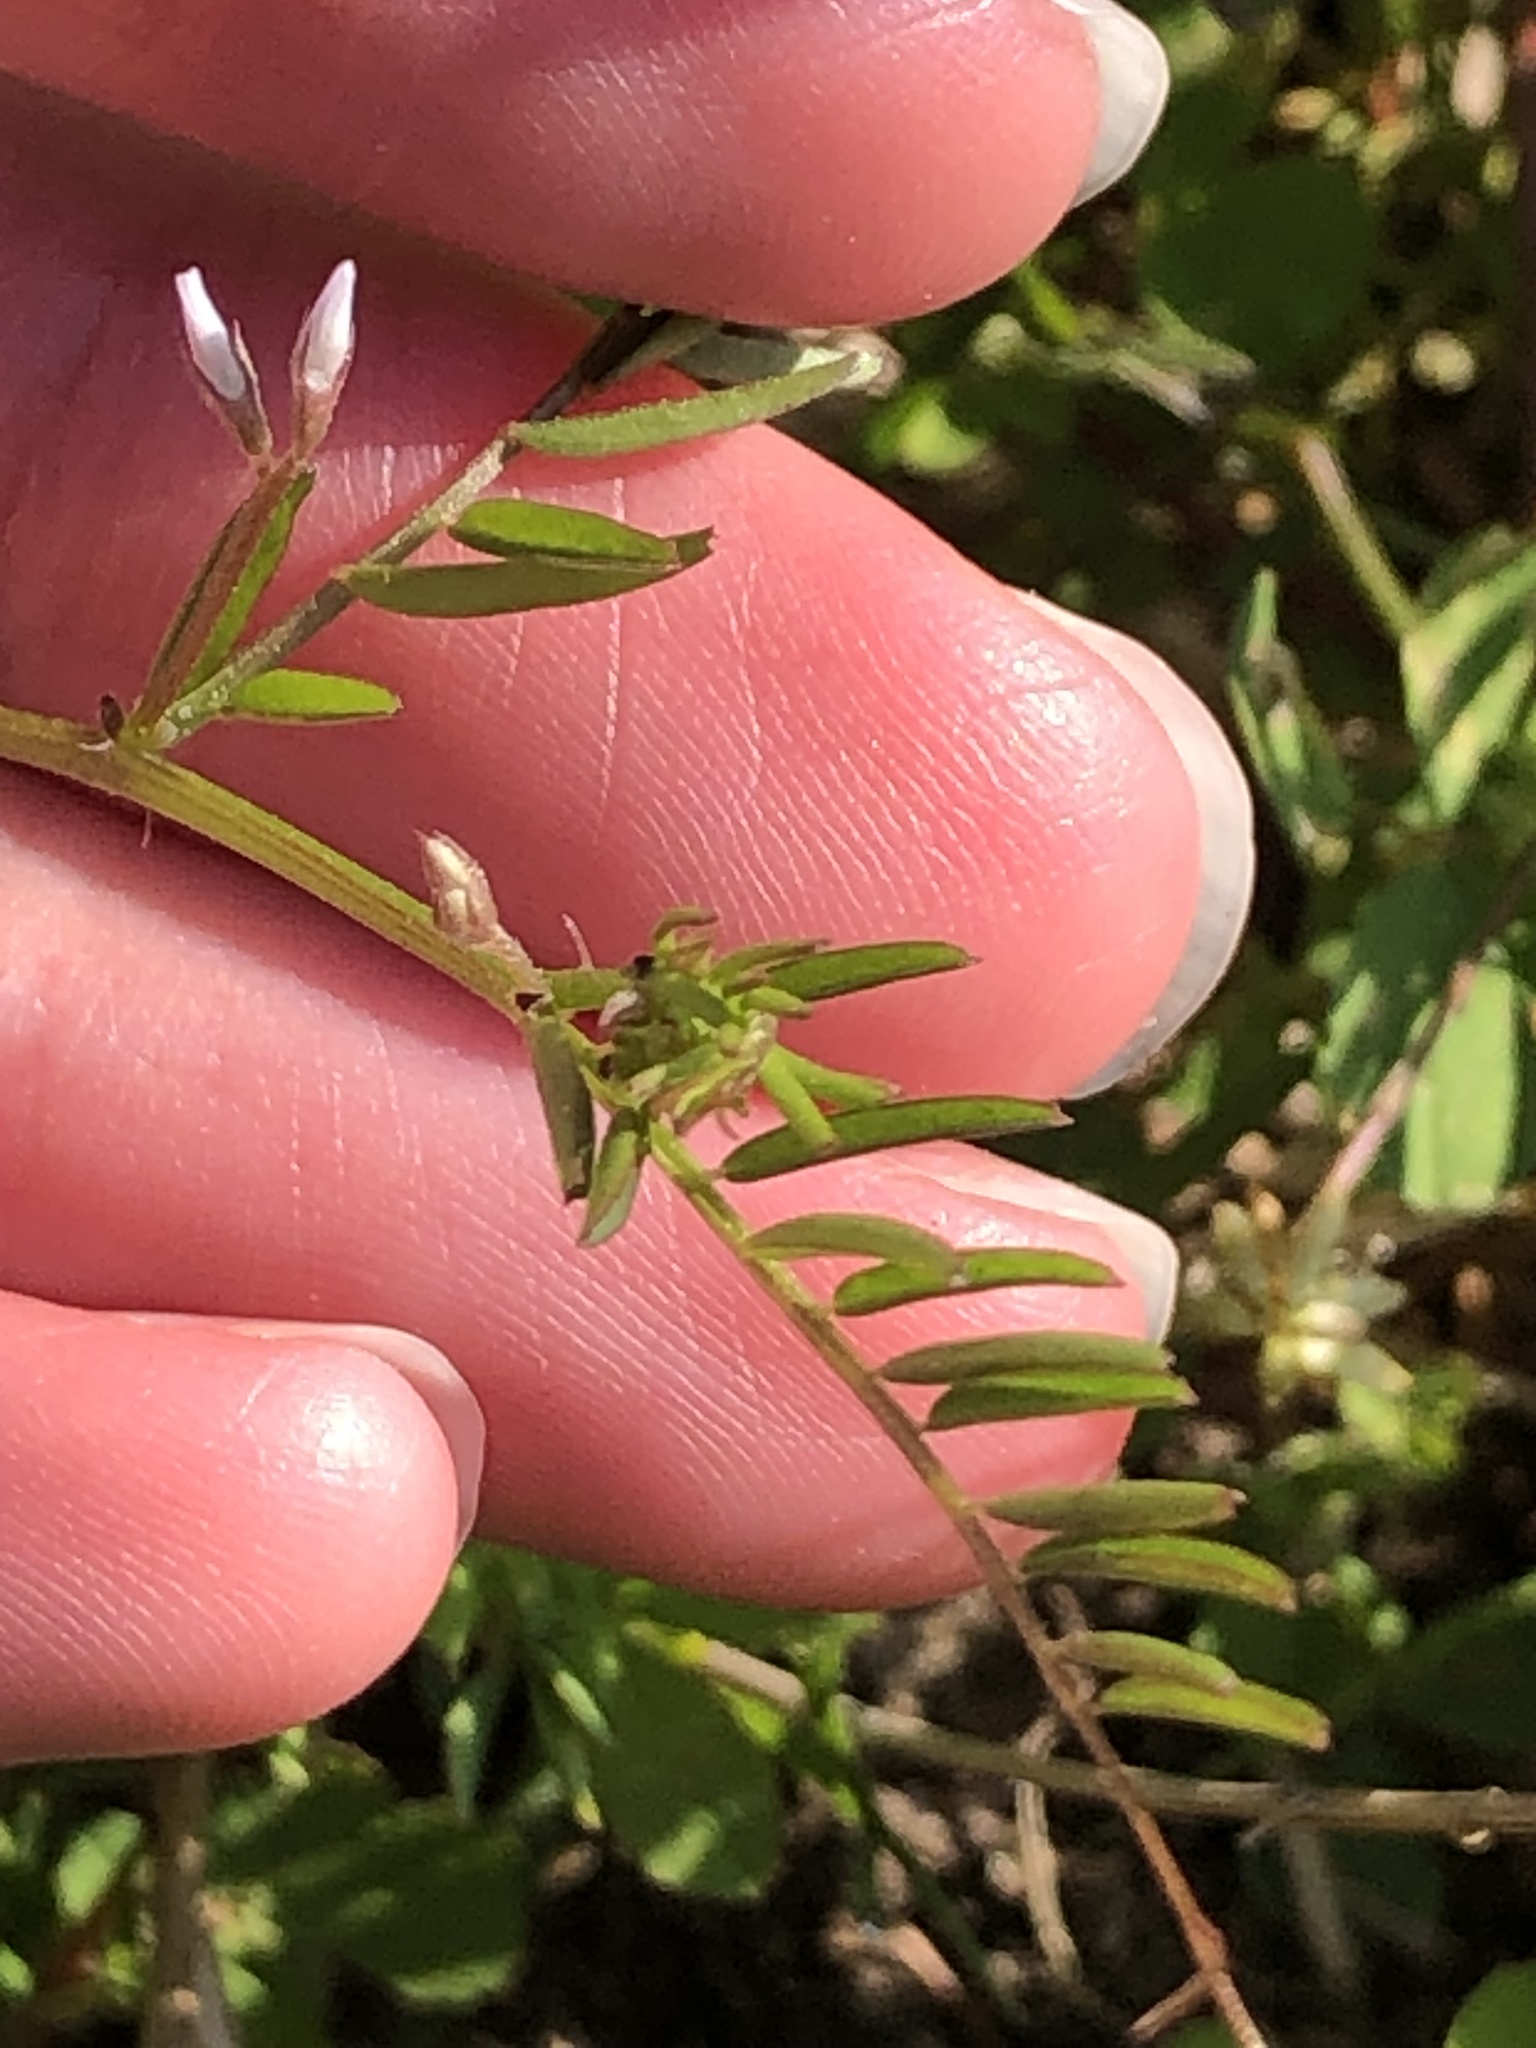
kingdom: Plantae
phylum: Tracheophyta
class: Magnoliopsida
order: Fabales
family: Fabaceae
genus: Vicia
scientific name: Vicia hirsuta
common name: Tiny vetch
